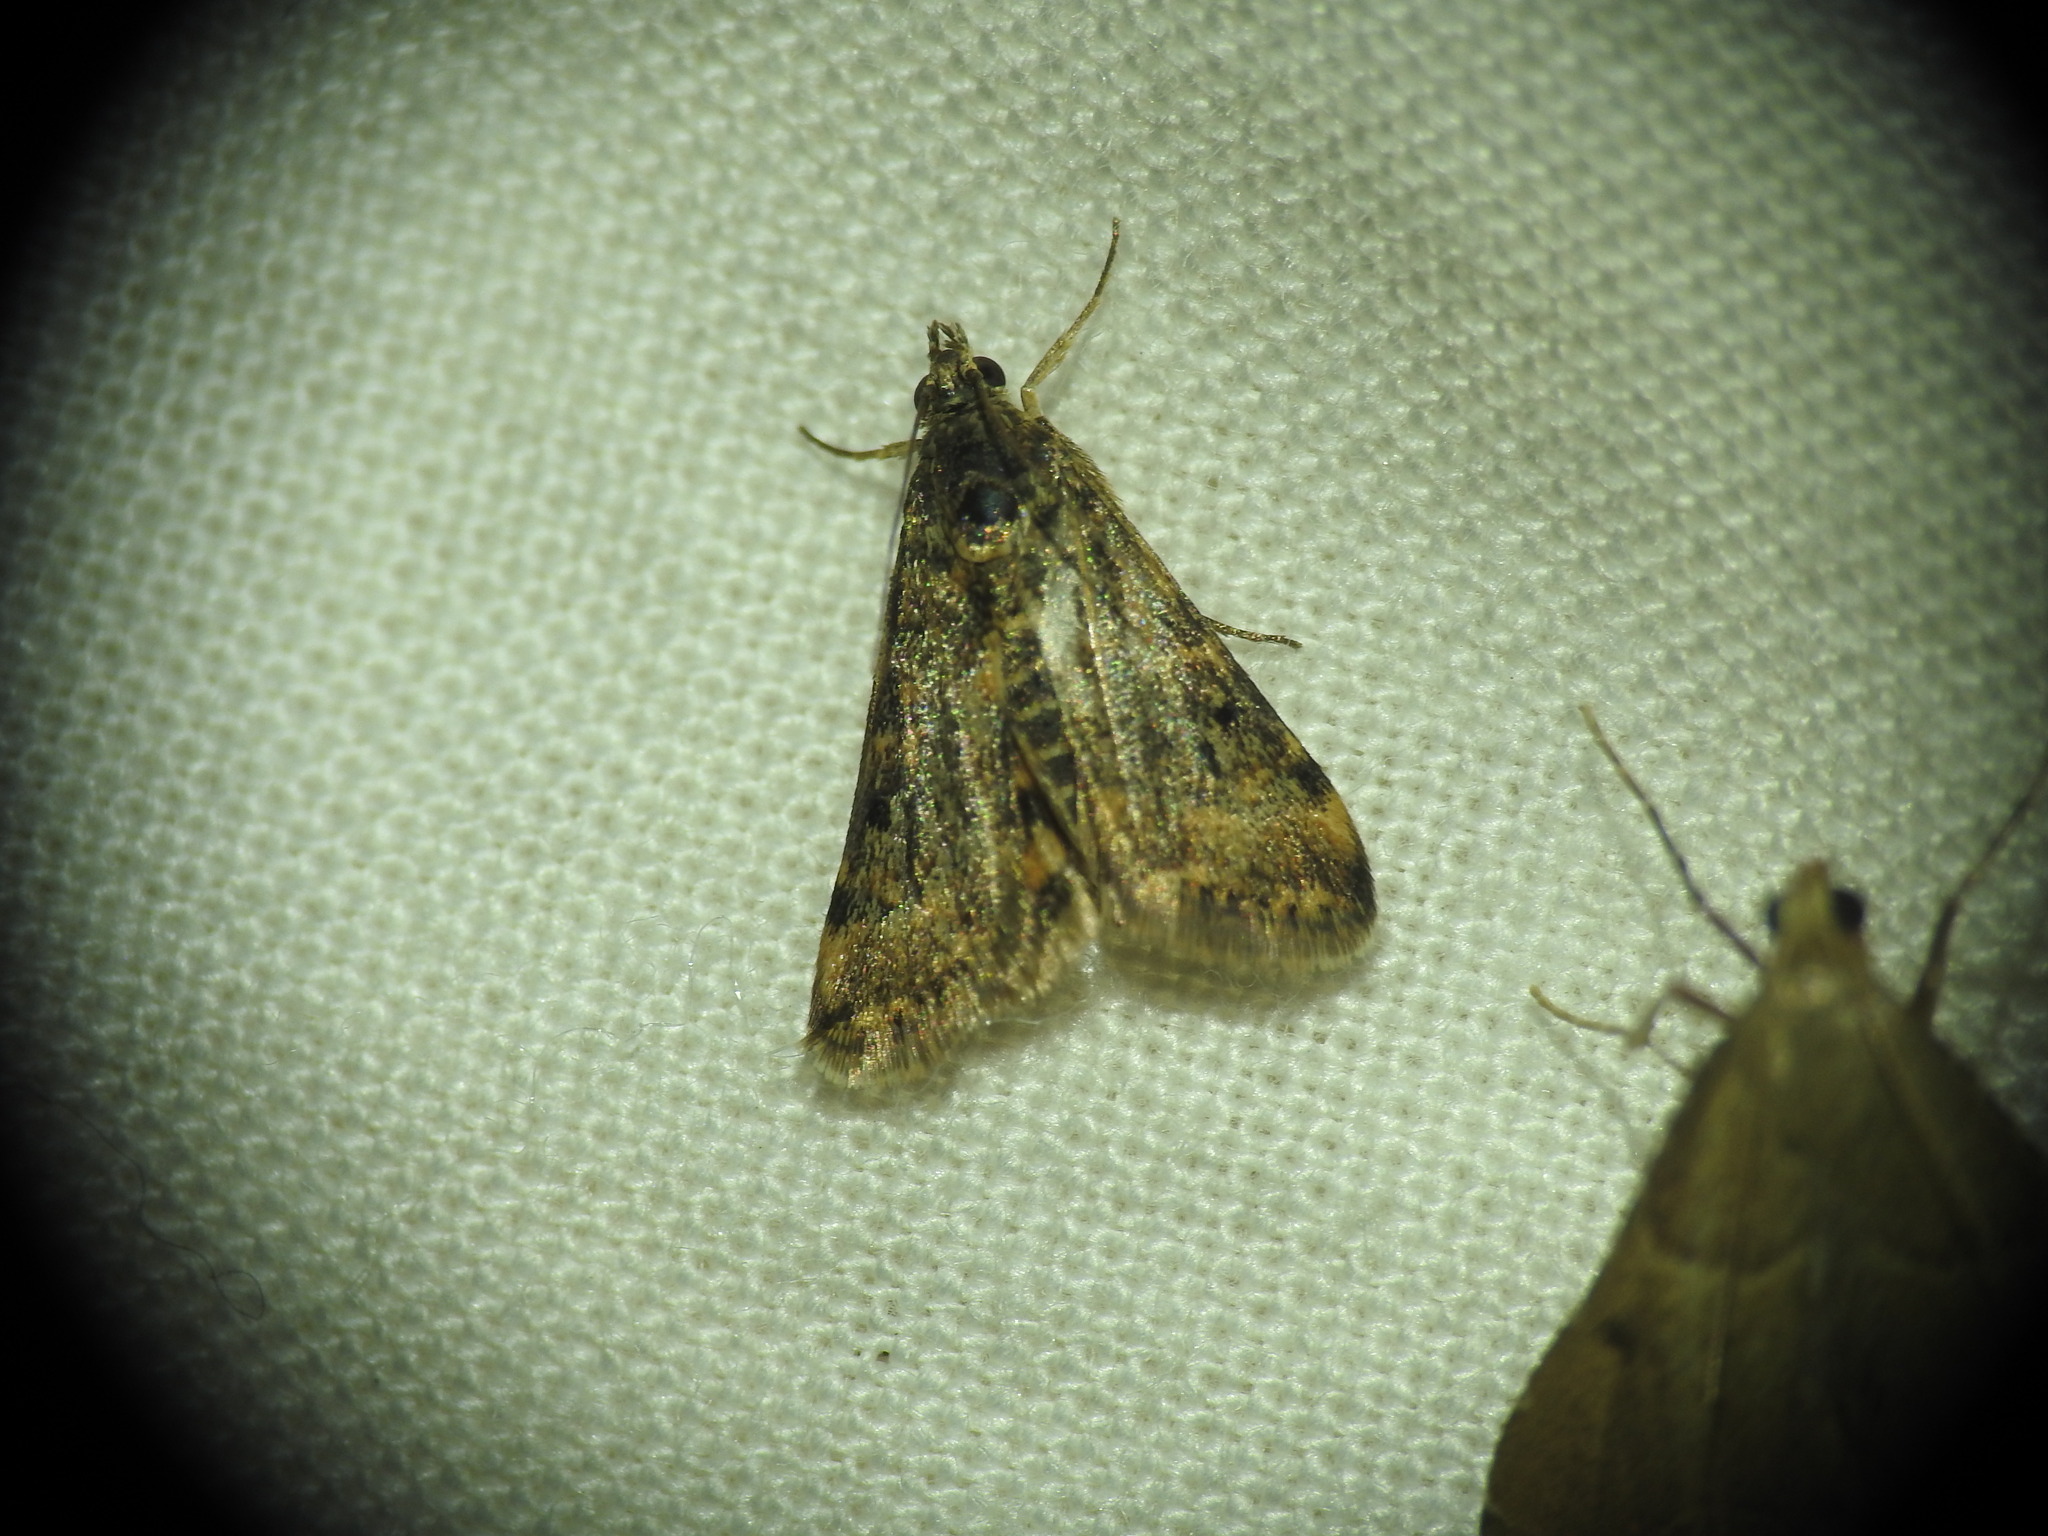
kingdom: Animalia
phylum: Arthropoda
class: Insecta
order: Lepidoptera
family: Crambidae
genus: Noctuelia
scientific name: Noctuelia Aporodes floralis
